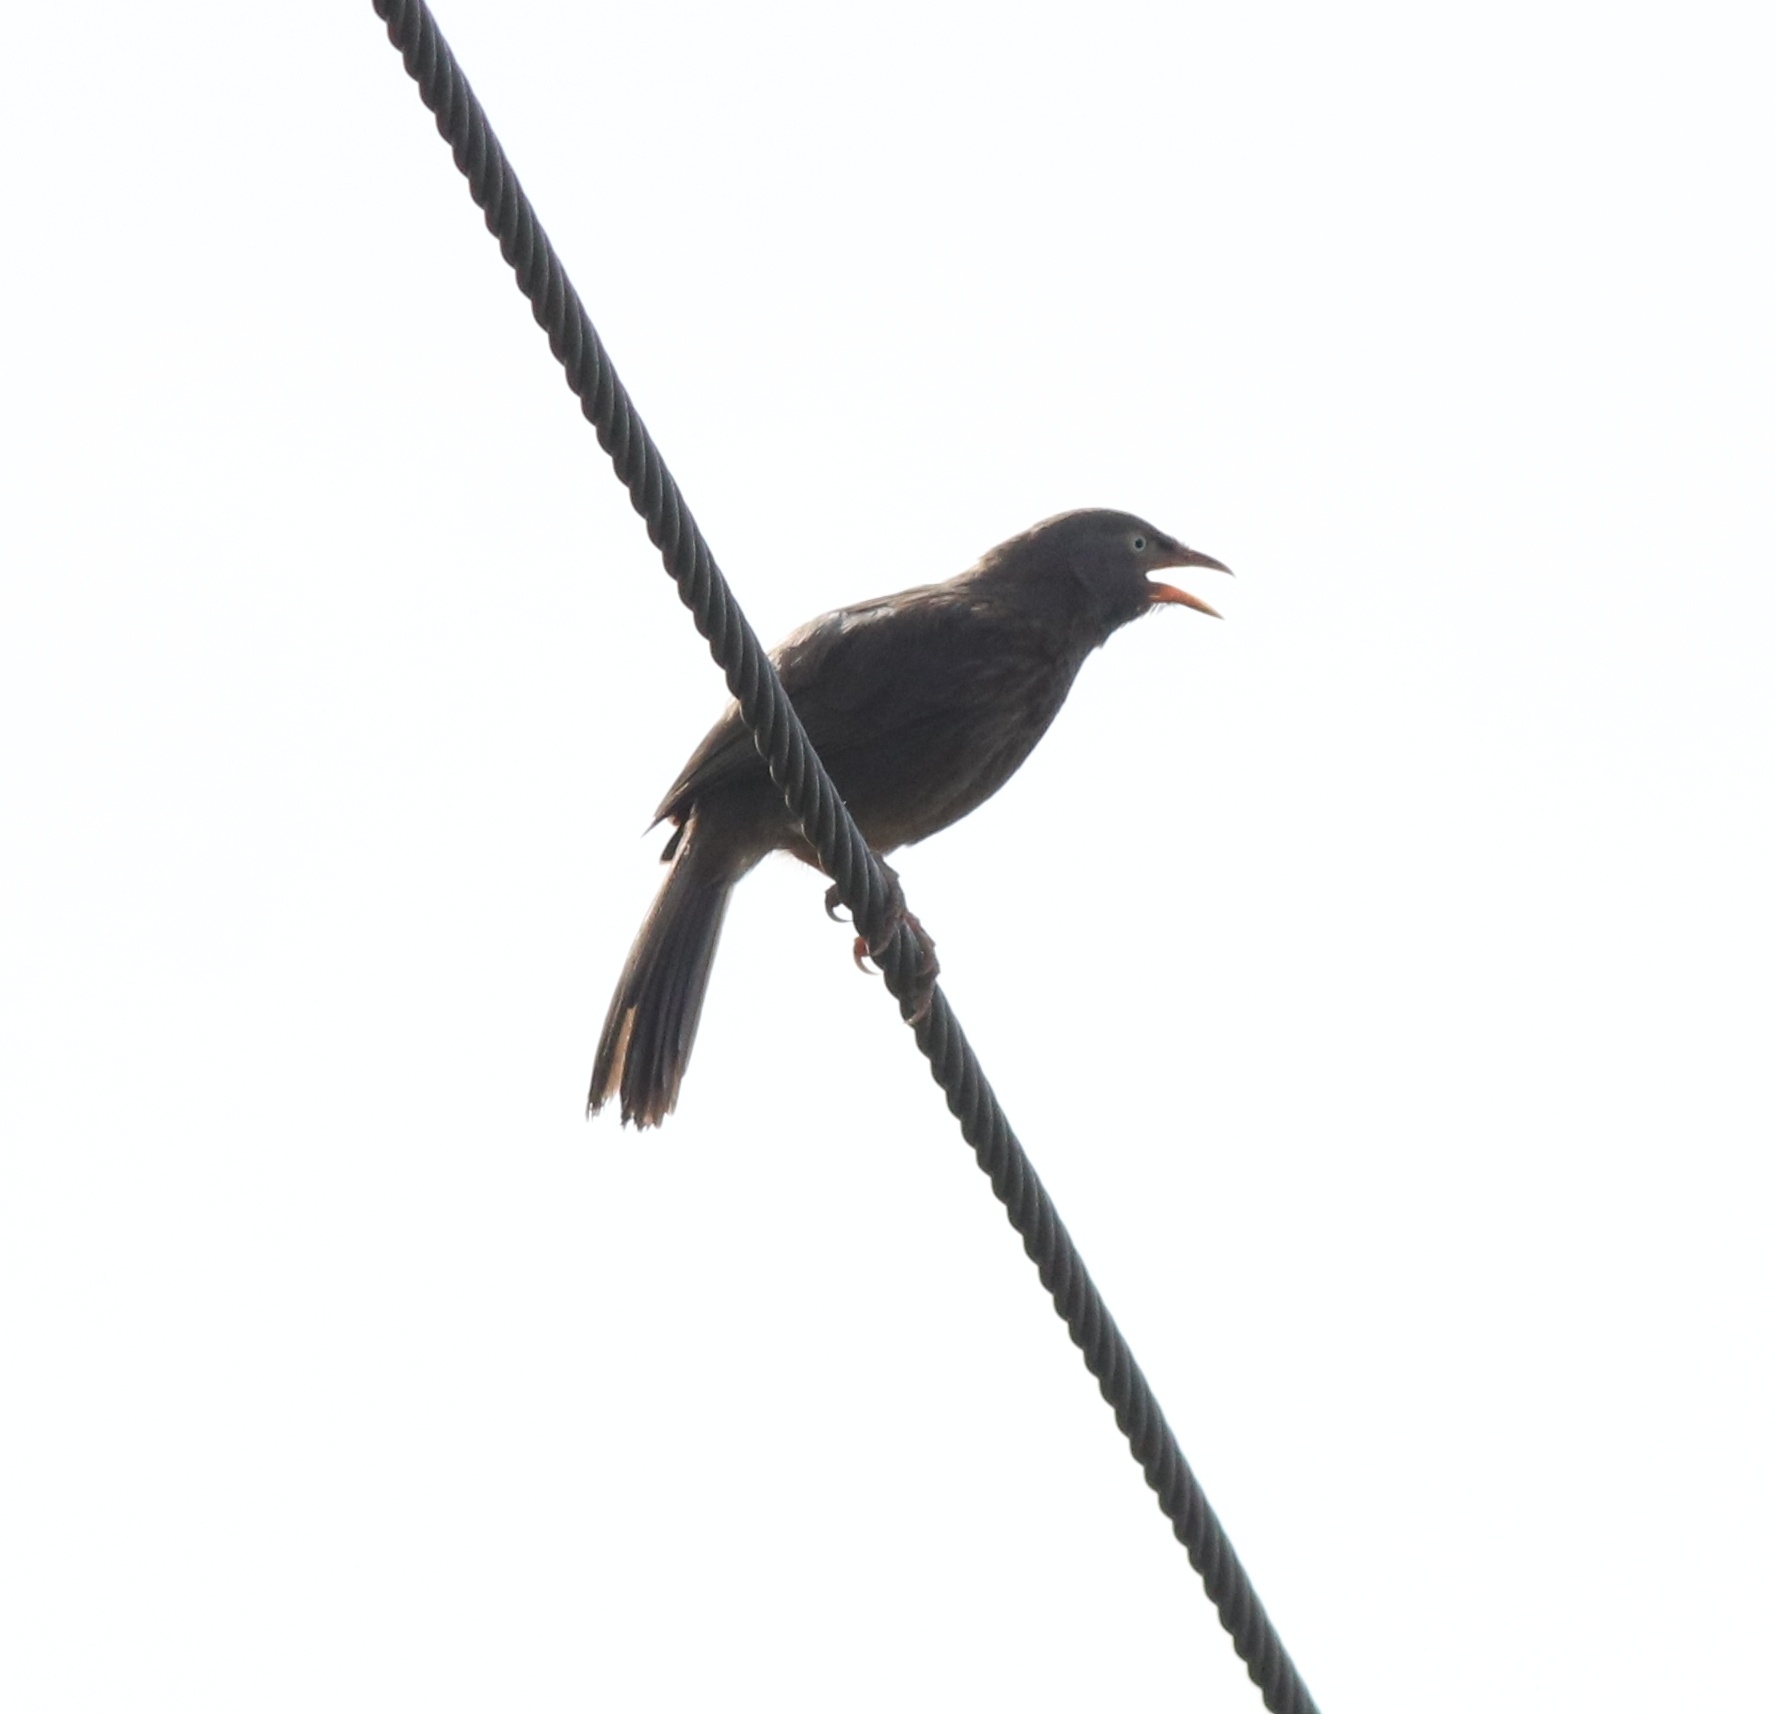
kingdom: Animalia
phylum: Chordata
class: Aves
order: Passeriformes
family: Leiothrichidae
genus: Turdoides
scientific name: Turdoides striata
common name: Jungle babbler
